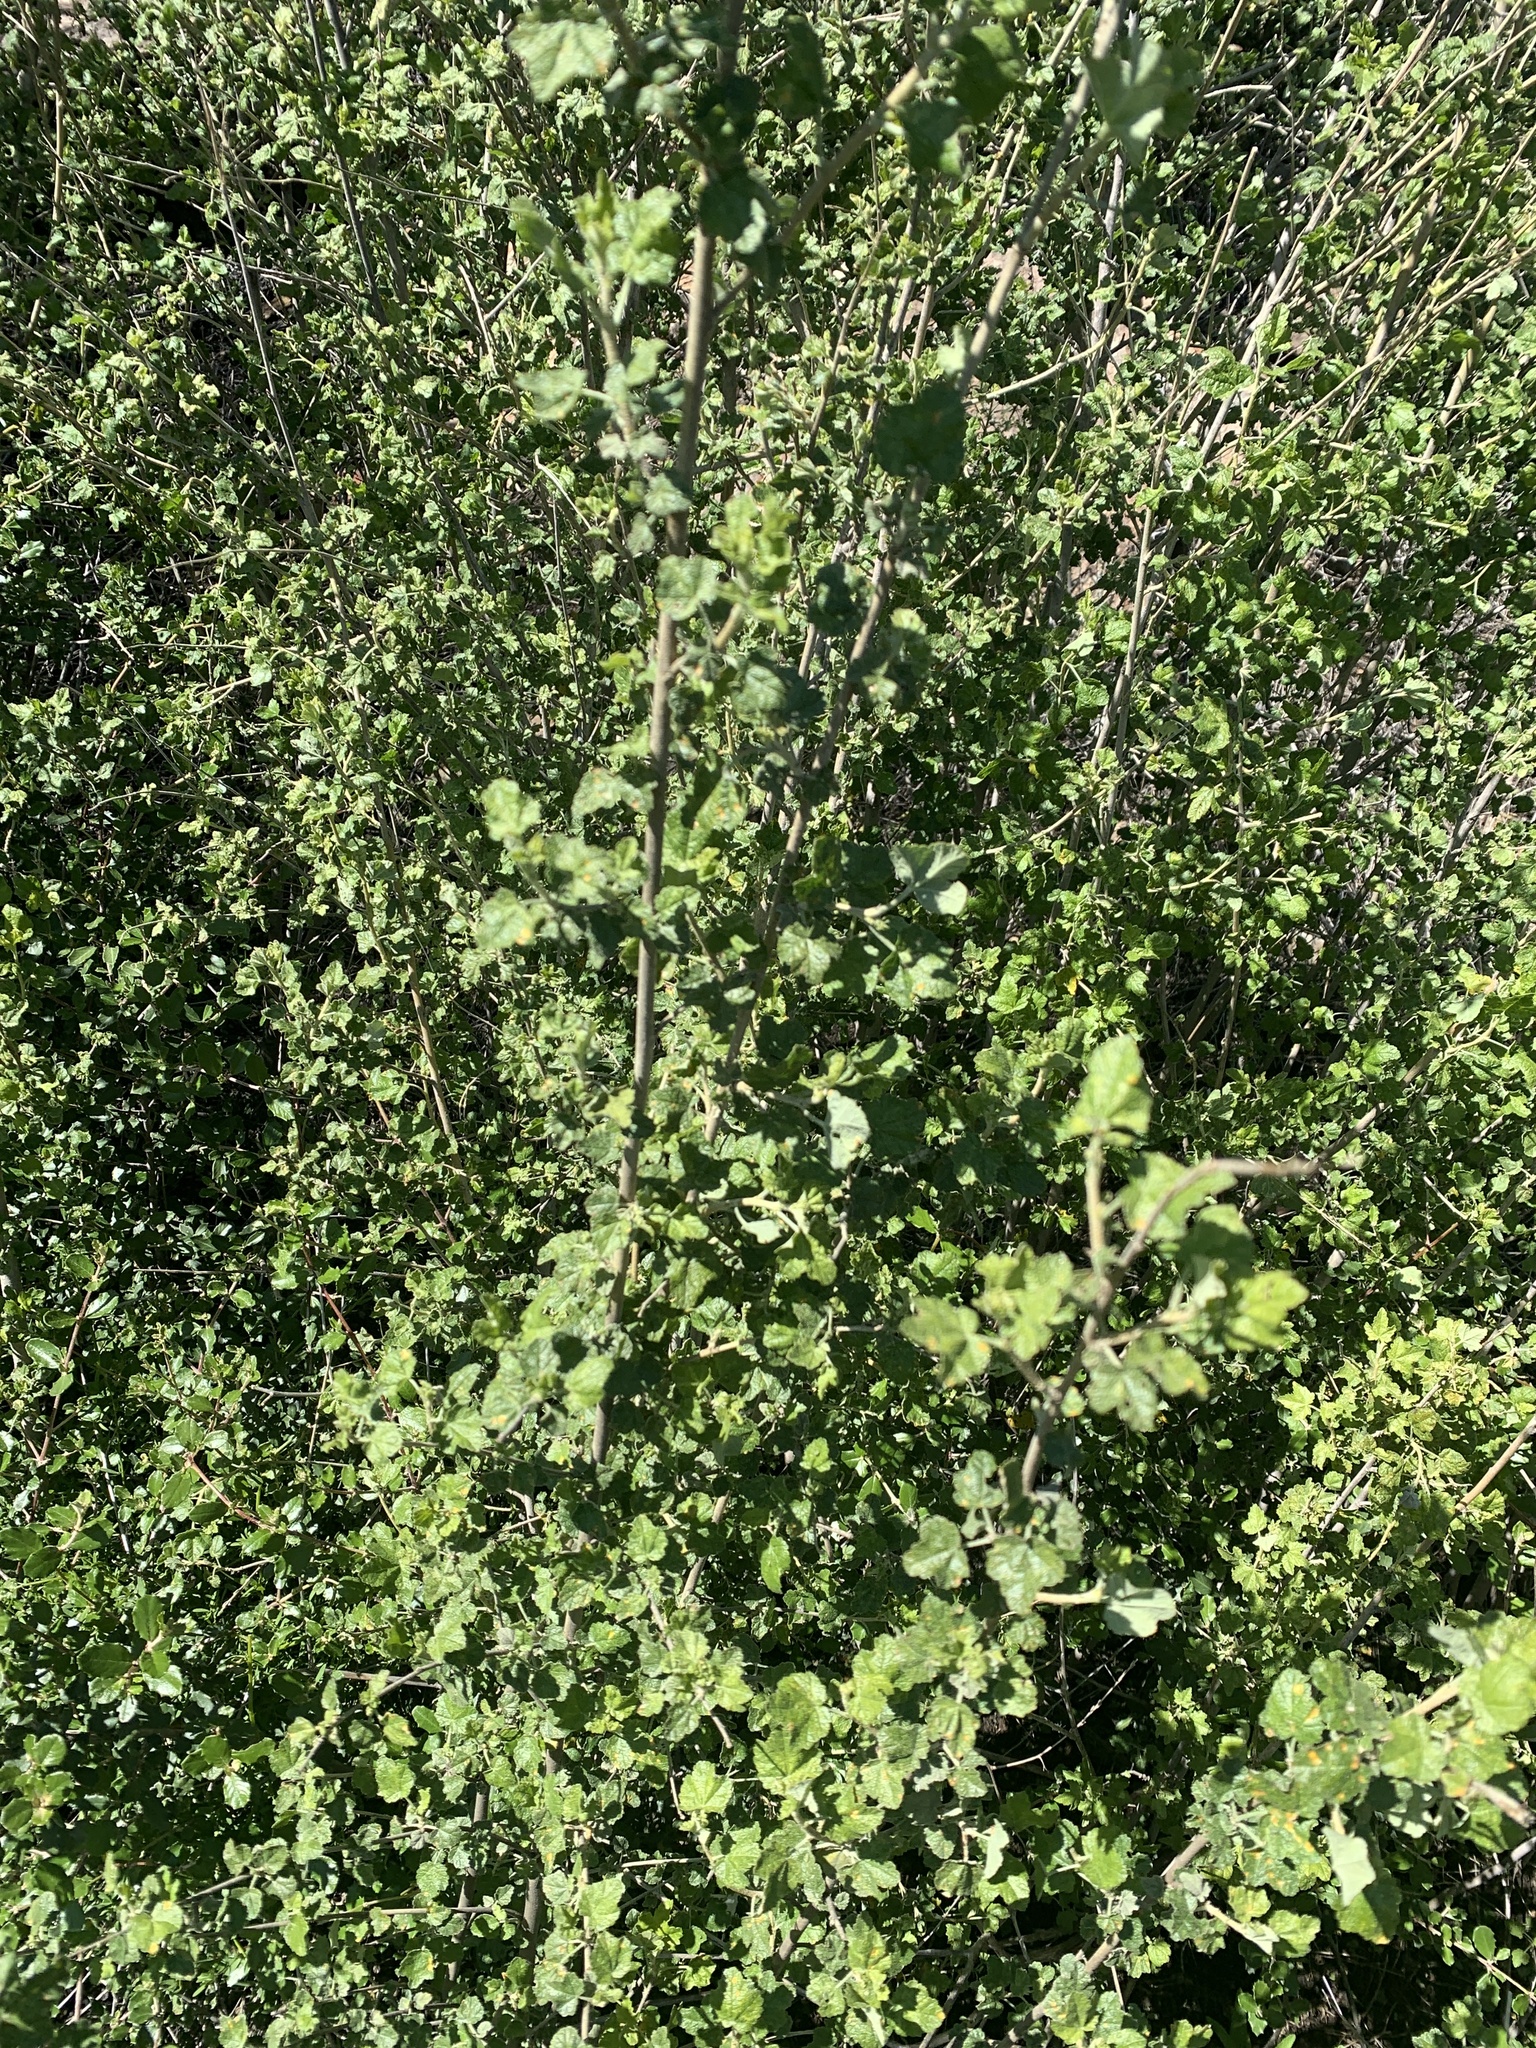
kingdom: Plantae
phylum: Tracheophyta
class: Magnoliopsida
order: Malvales
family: Malvaceae
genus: Malacothamnus
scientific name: Malacothamnus fasciculatus
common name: Sant cruz island bush-mallow
